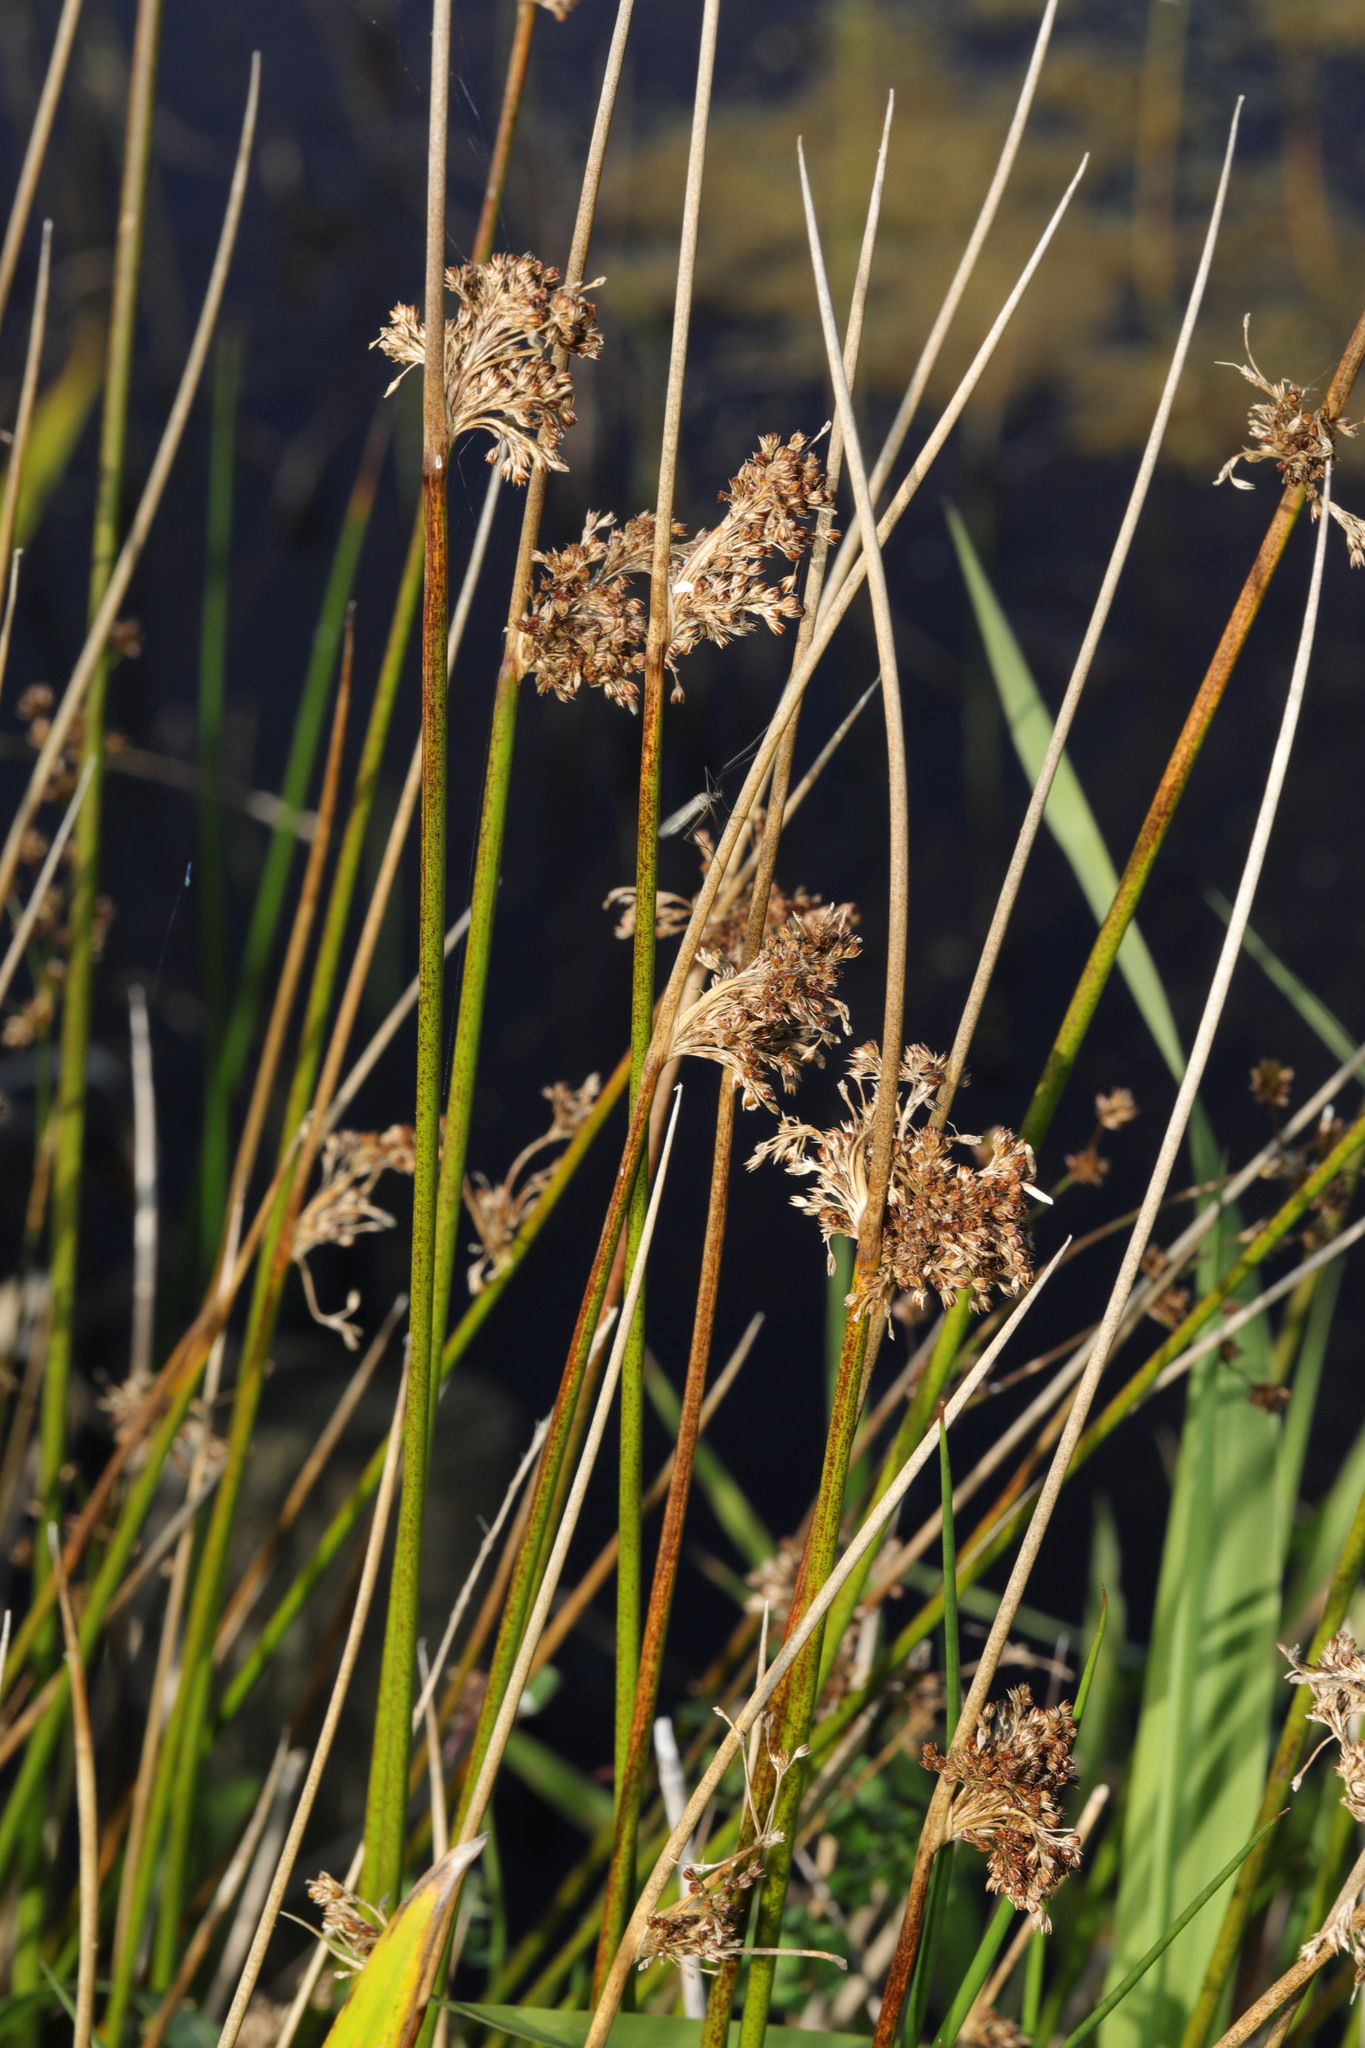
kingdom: Plantae
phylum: Tracheophyta
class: Liliopsida
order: Poales
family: Juncaceae
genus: Juncus
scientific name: Juncus effusus
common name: Soft rush
